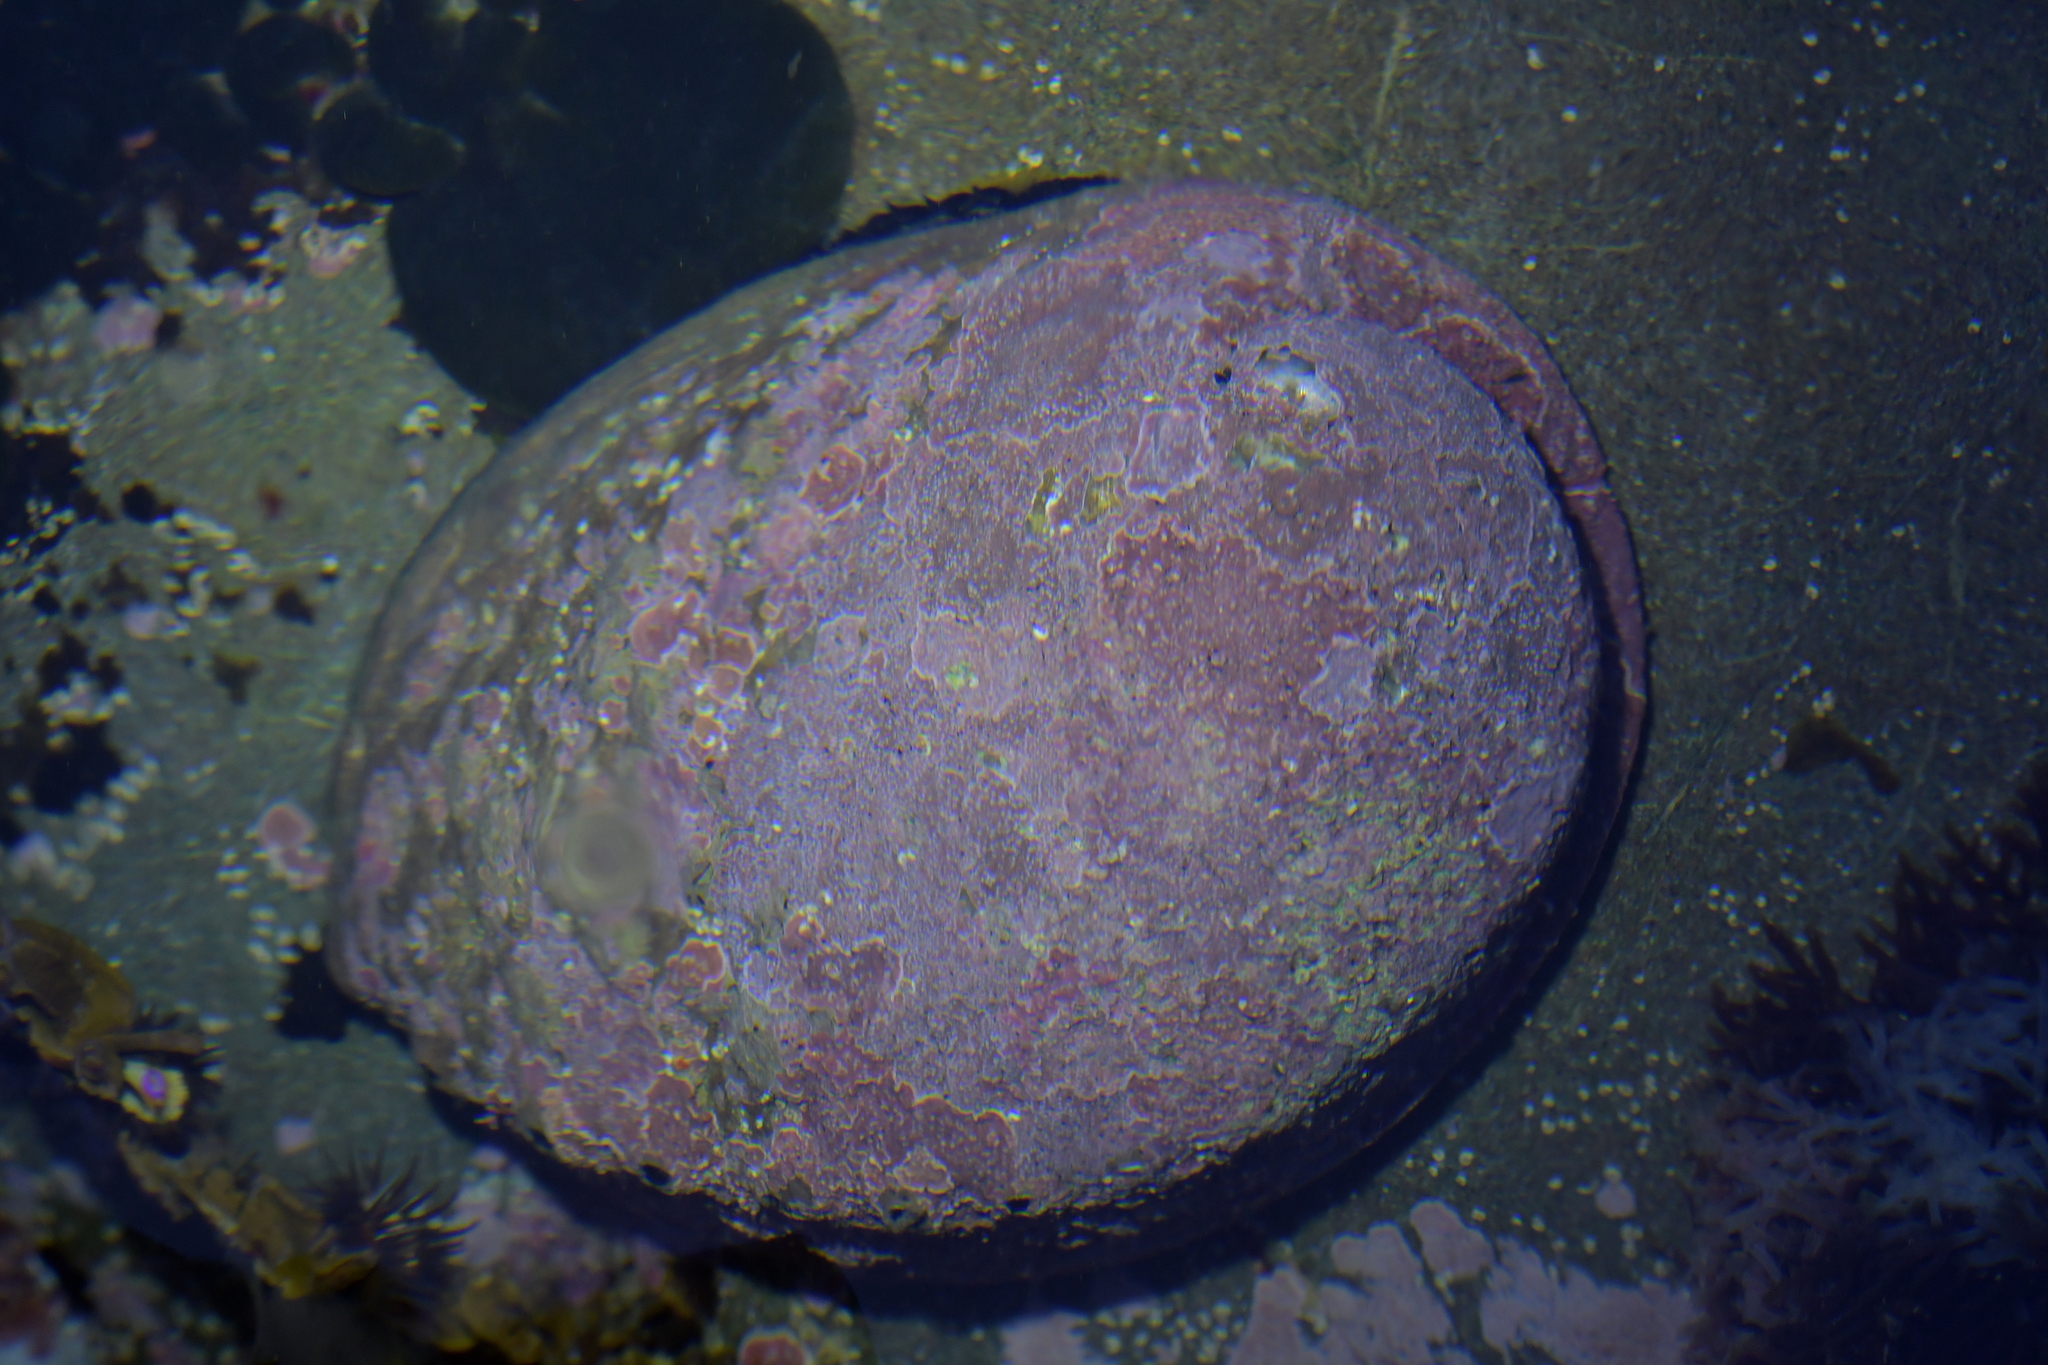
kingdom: Animalia
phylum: Mollusca
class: Gastropoda
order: Lepetellida
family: Haliotidae
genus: Haliotis
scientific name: Haliotis iris
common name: Abalone
